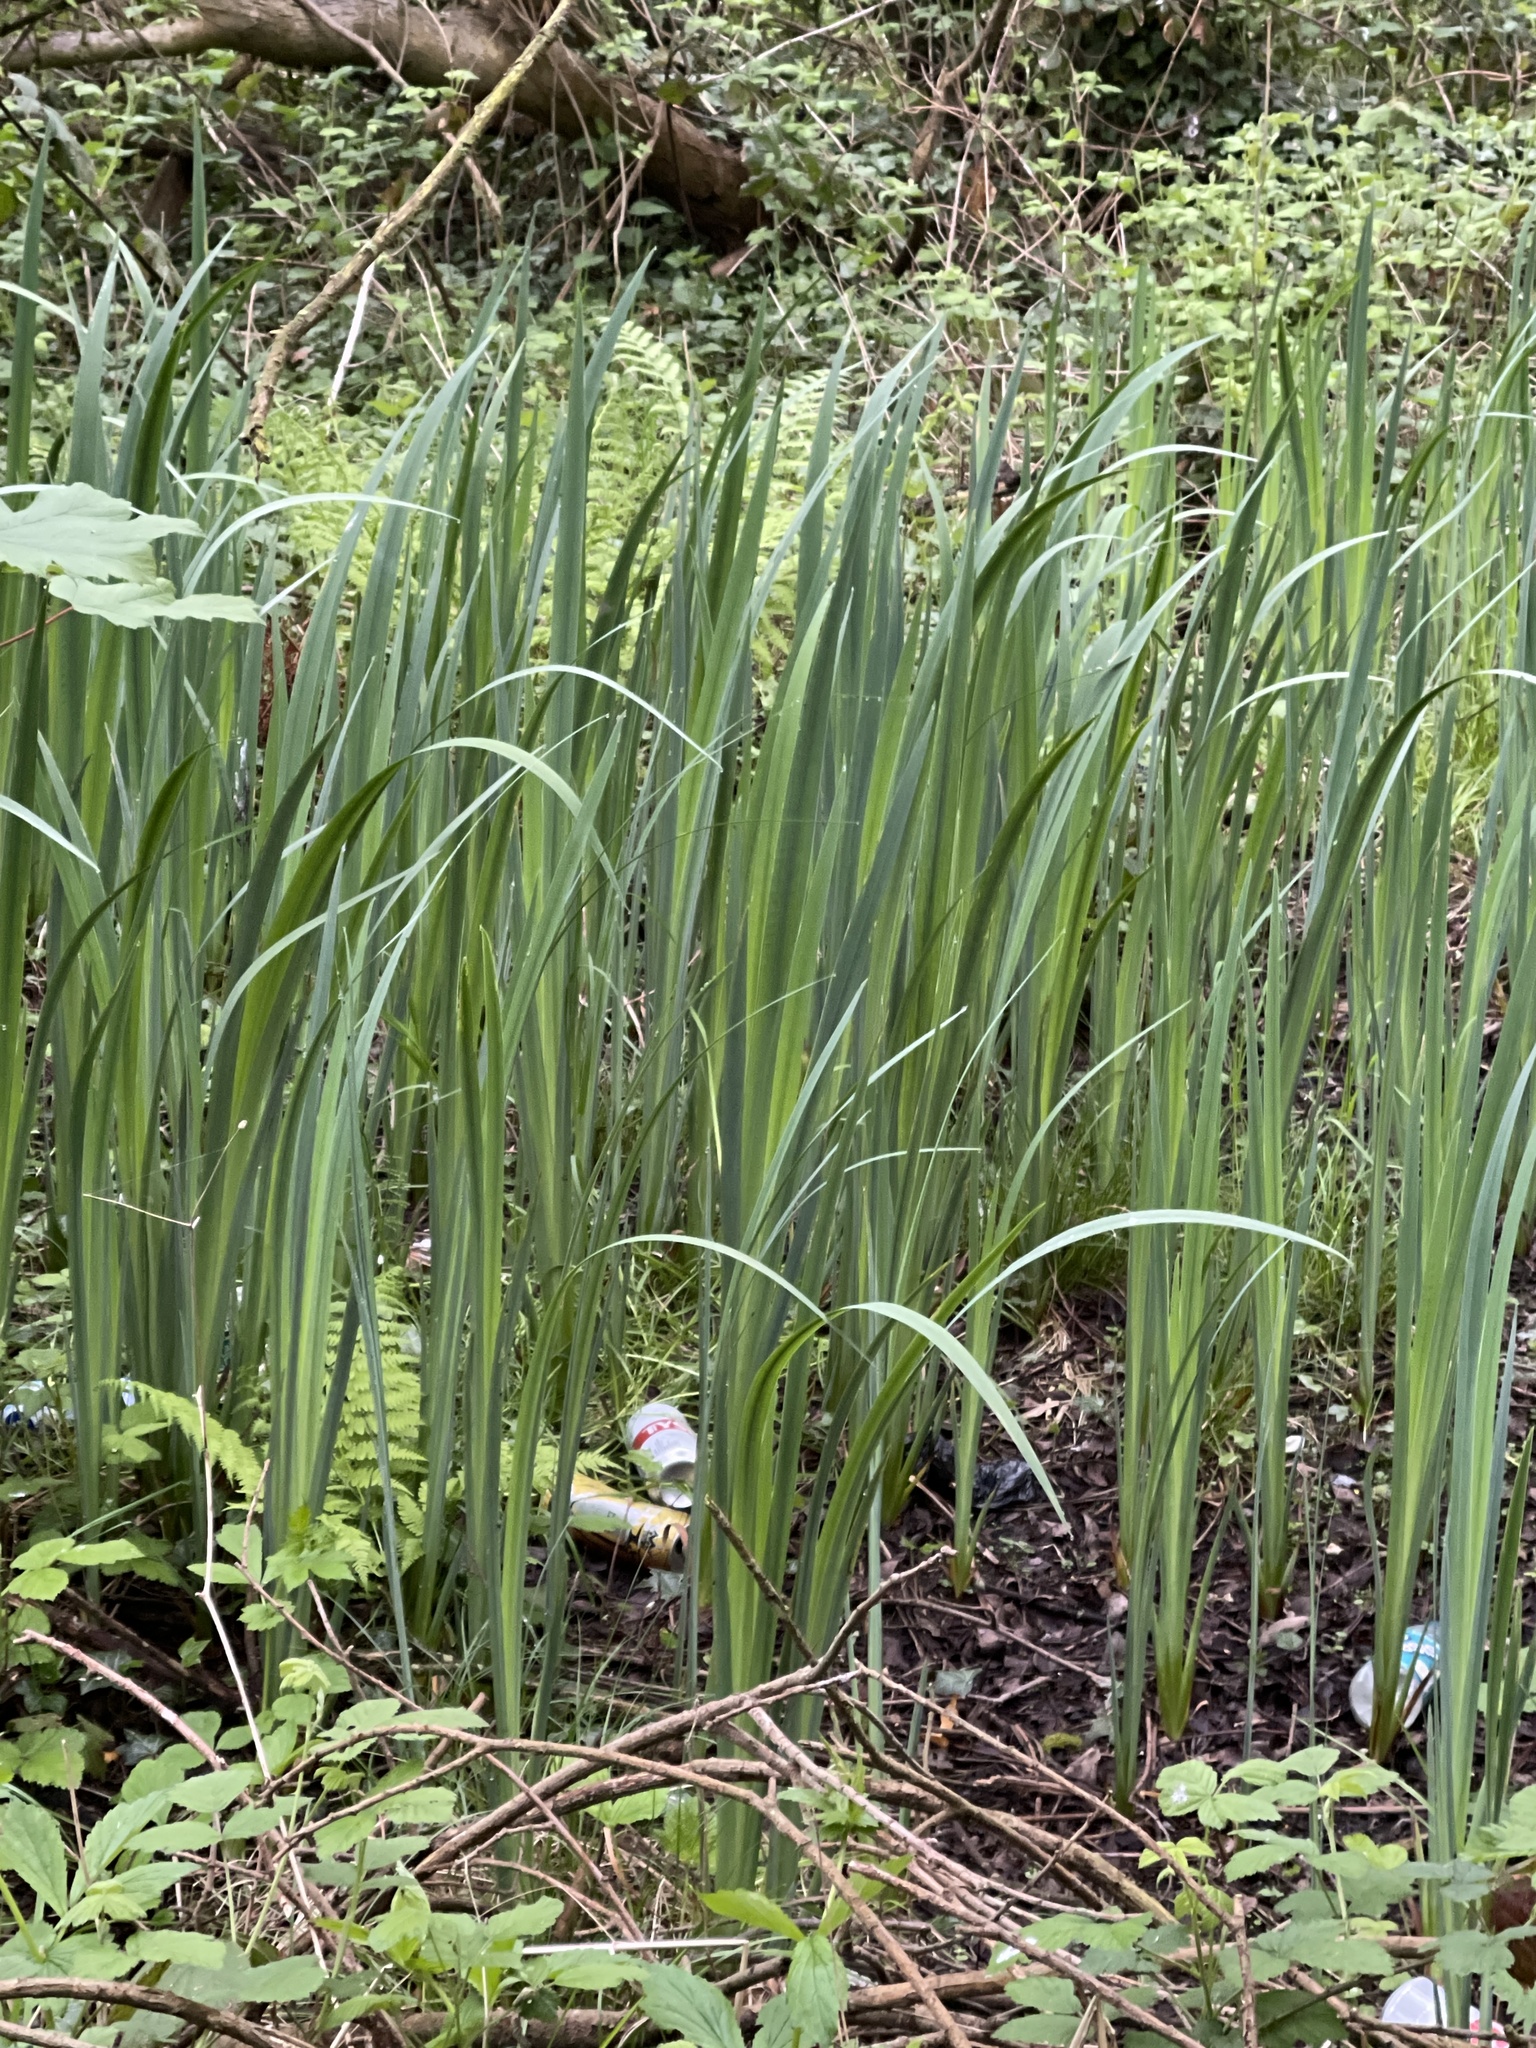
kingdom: Plantae
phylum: Tracheophyta
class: Liliopsida
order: Asparagales
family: Iridaceae
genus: Iris
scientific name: Iris pseudacorus
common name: Yellow flag
